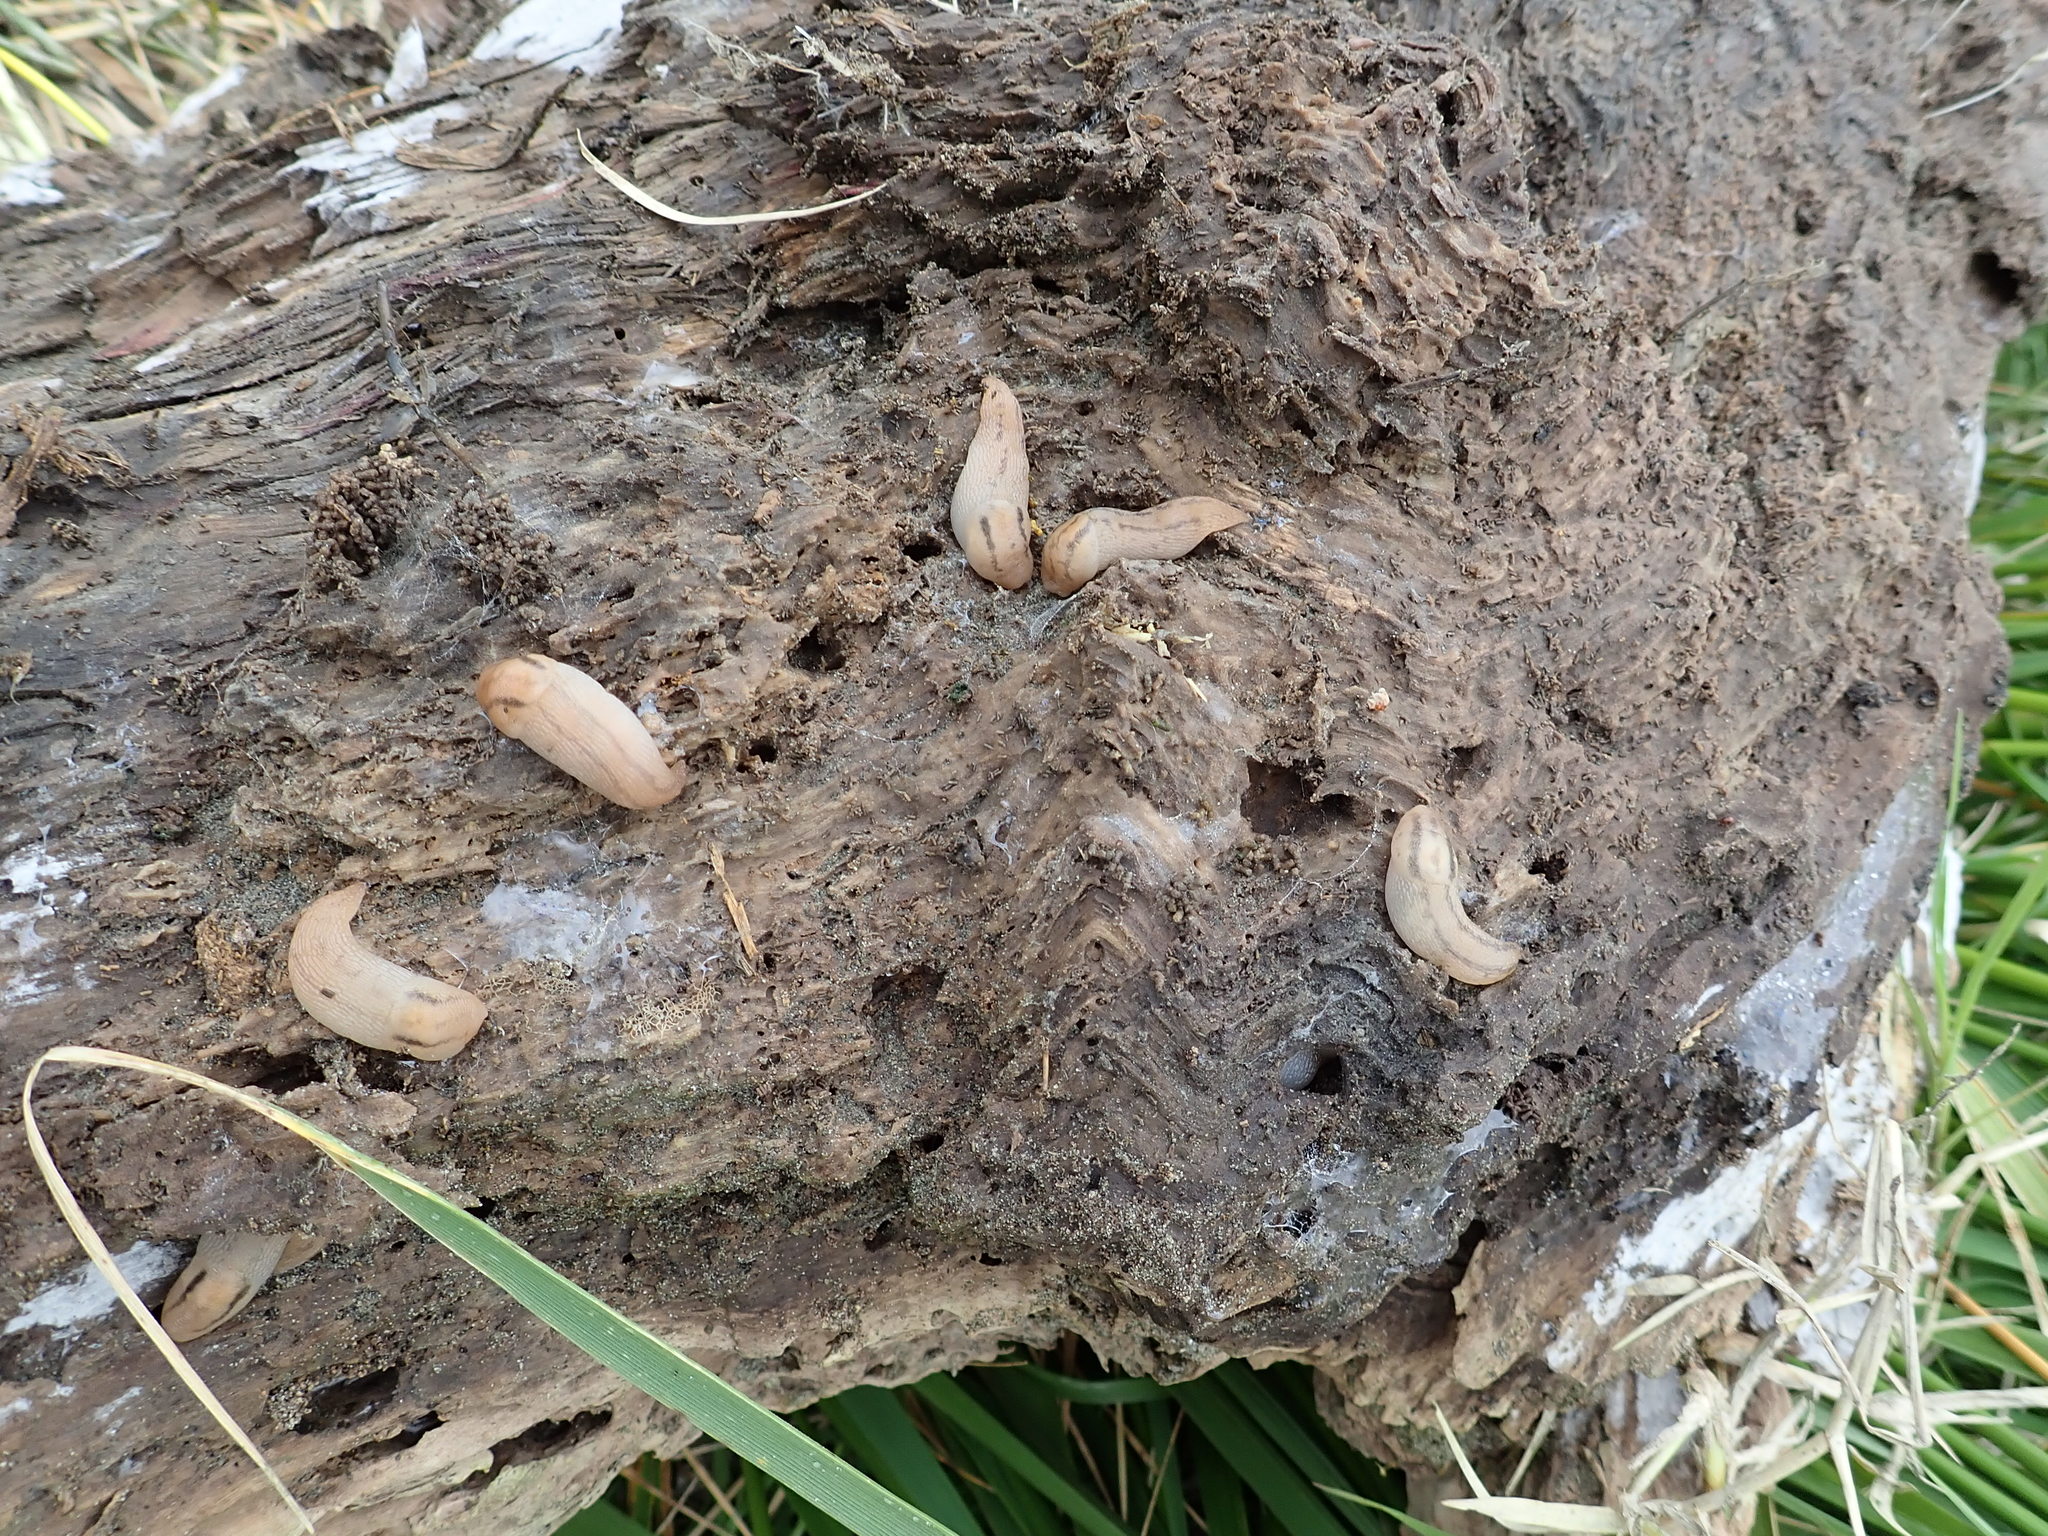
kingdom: Animalia
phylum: Mollusca
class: Gastropoda
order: Stylommatophora
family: Limacidae
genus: Ambigolimax
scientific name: Ambigolimax
